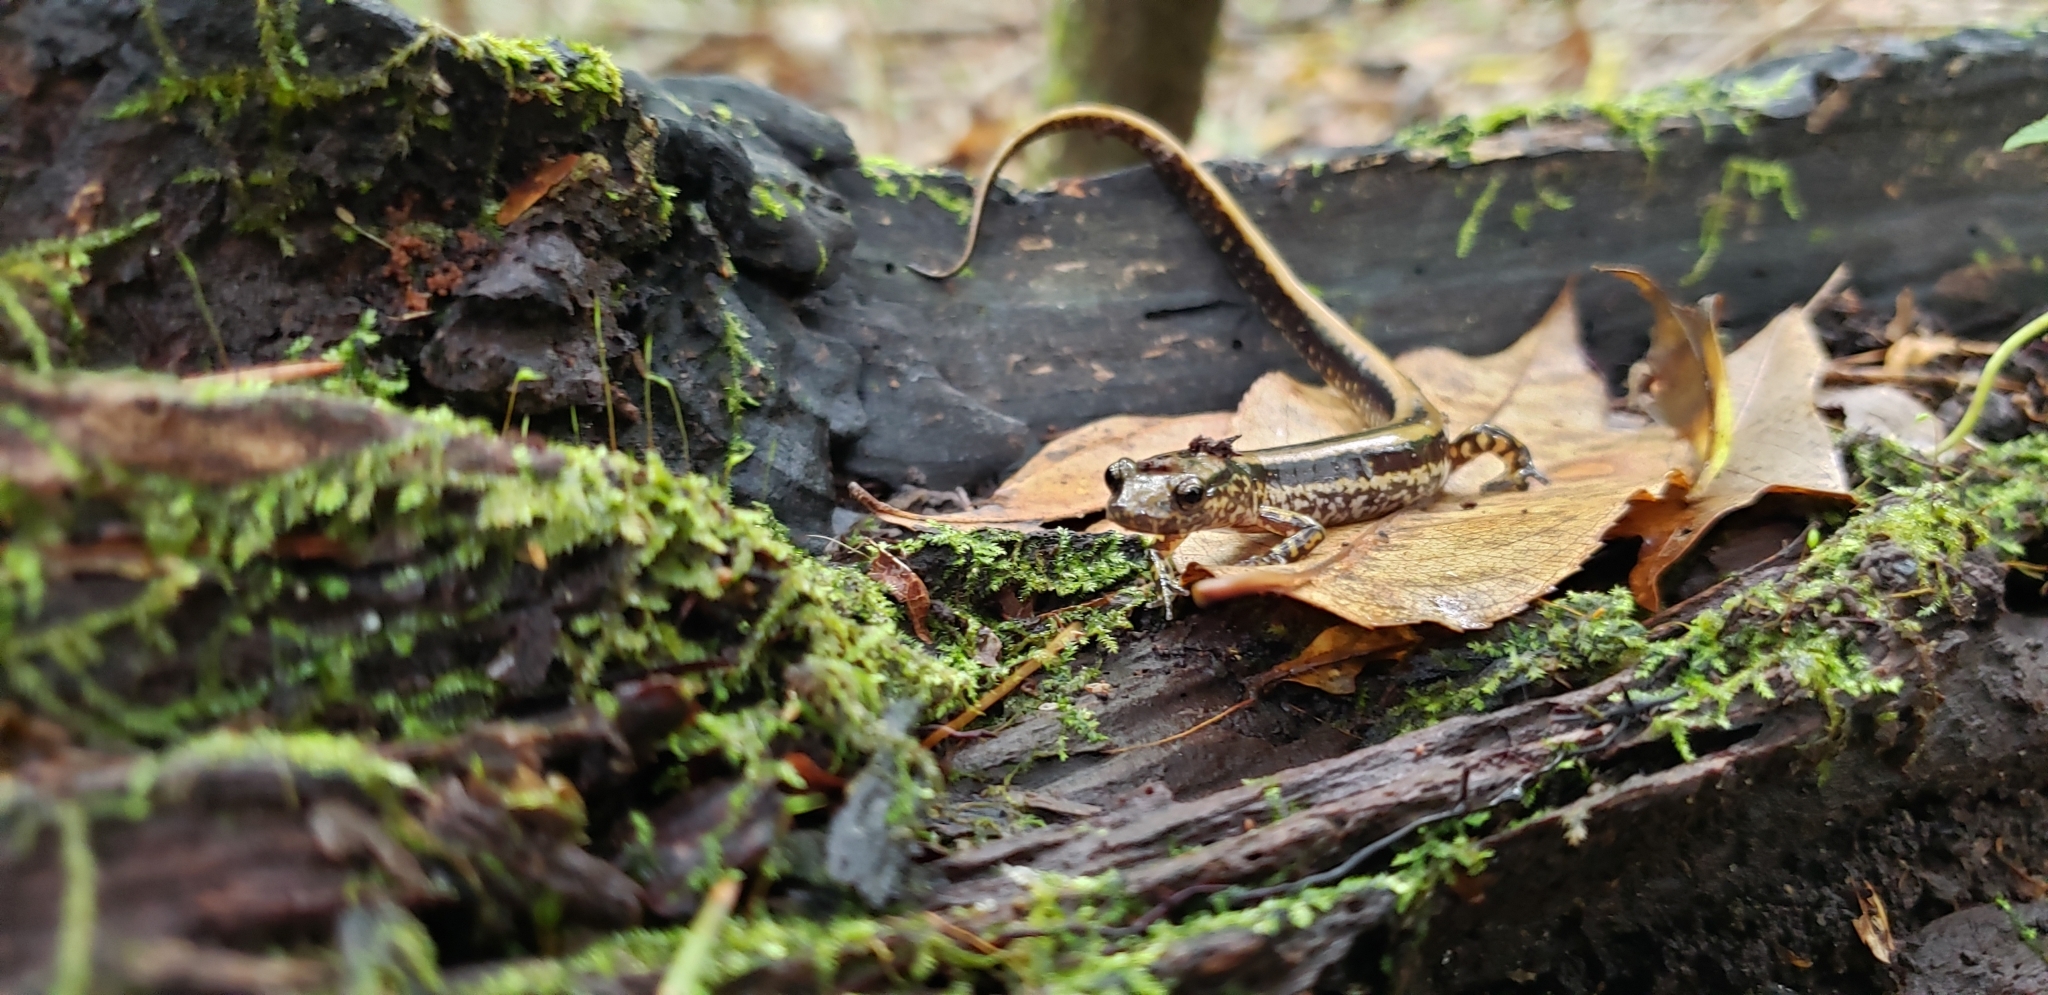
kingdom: Animalia
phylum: Chordata
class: Amphibia
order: Caudata
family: Plethodontidae
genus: Eurycea
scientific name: Eurycea guttolineata
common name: Three-lined salamander
